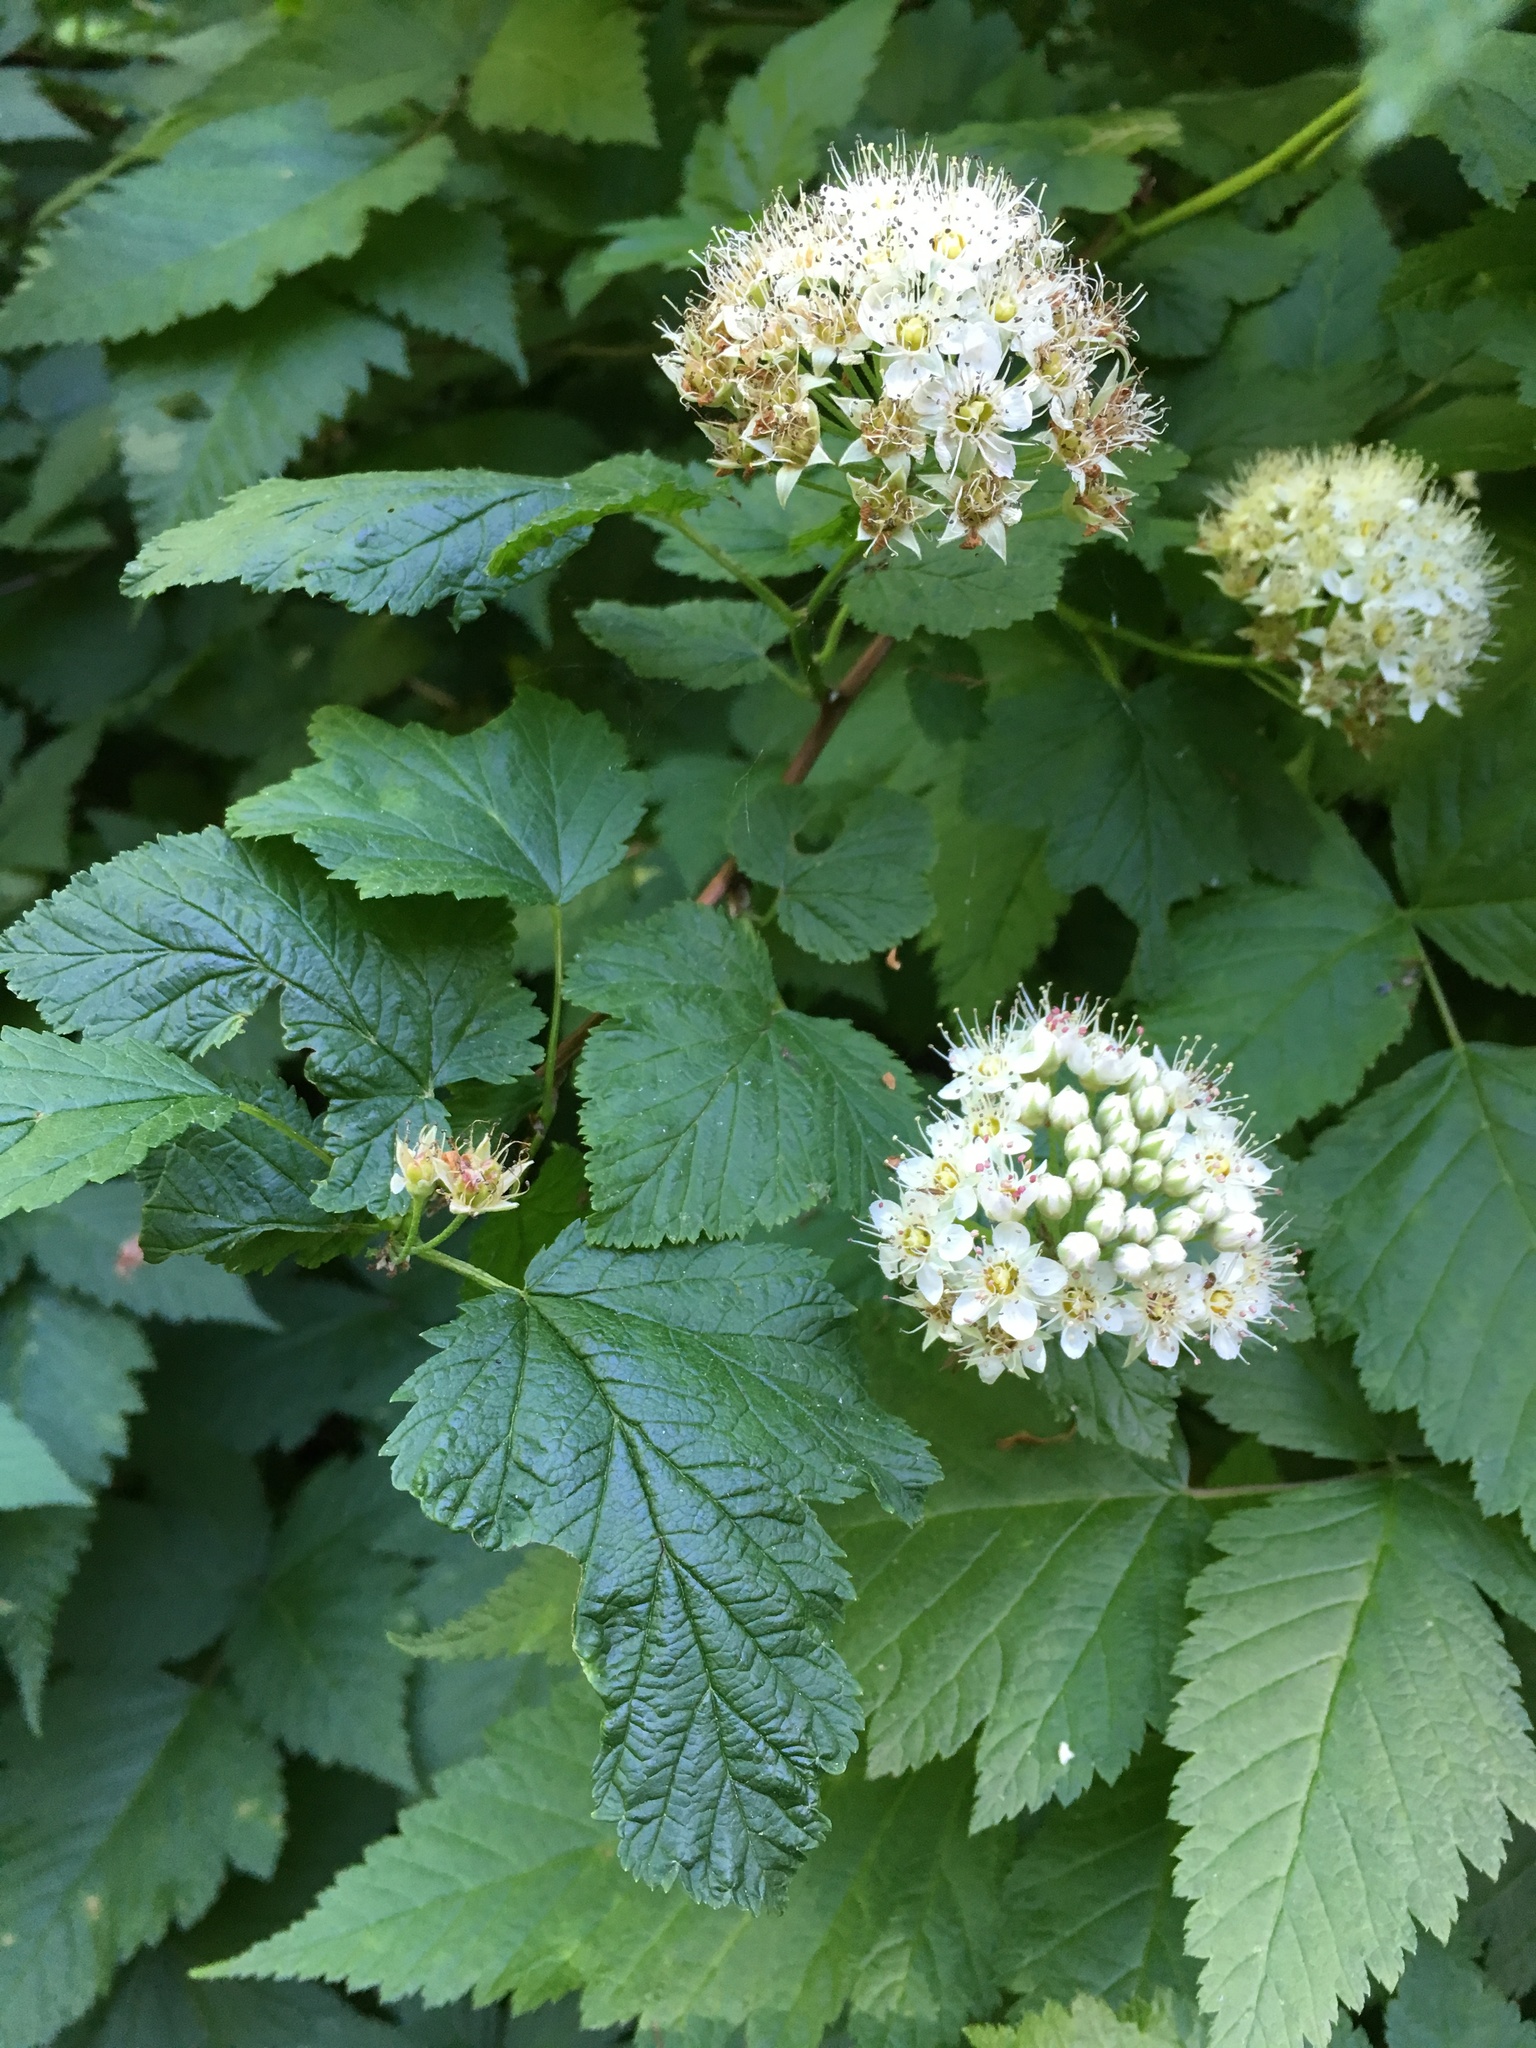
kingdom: Plantae
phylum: Tracheophyta
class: Magnoliopsida
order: Rosales
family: Rosaceae
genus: Physocarpus
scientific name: Physocarpus capitatus
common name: Pacific ninebark
